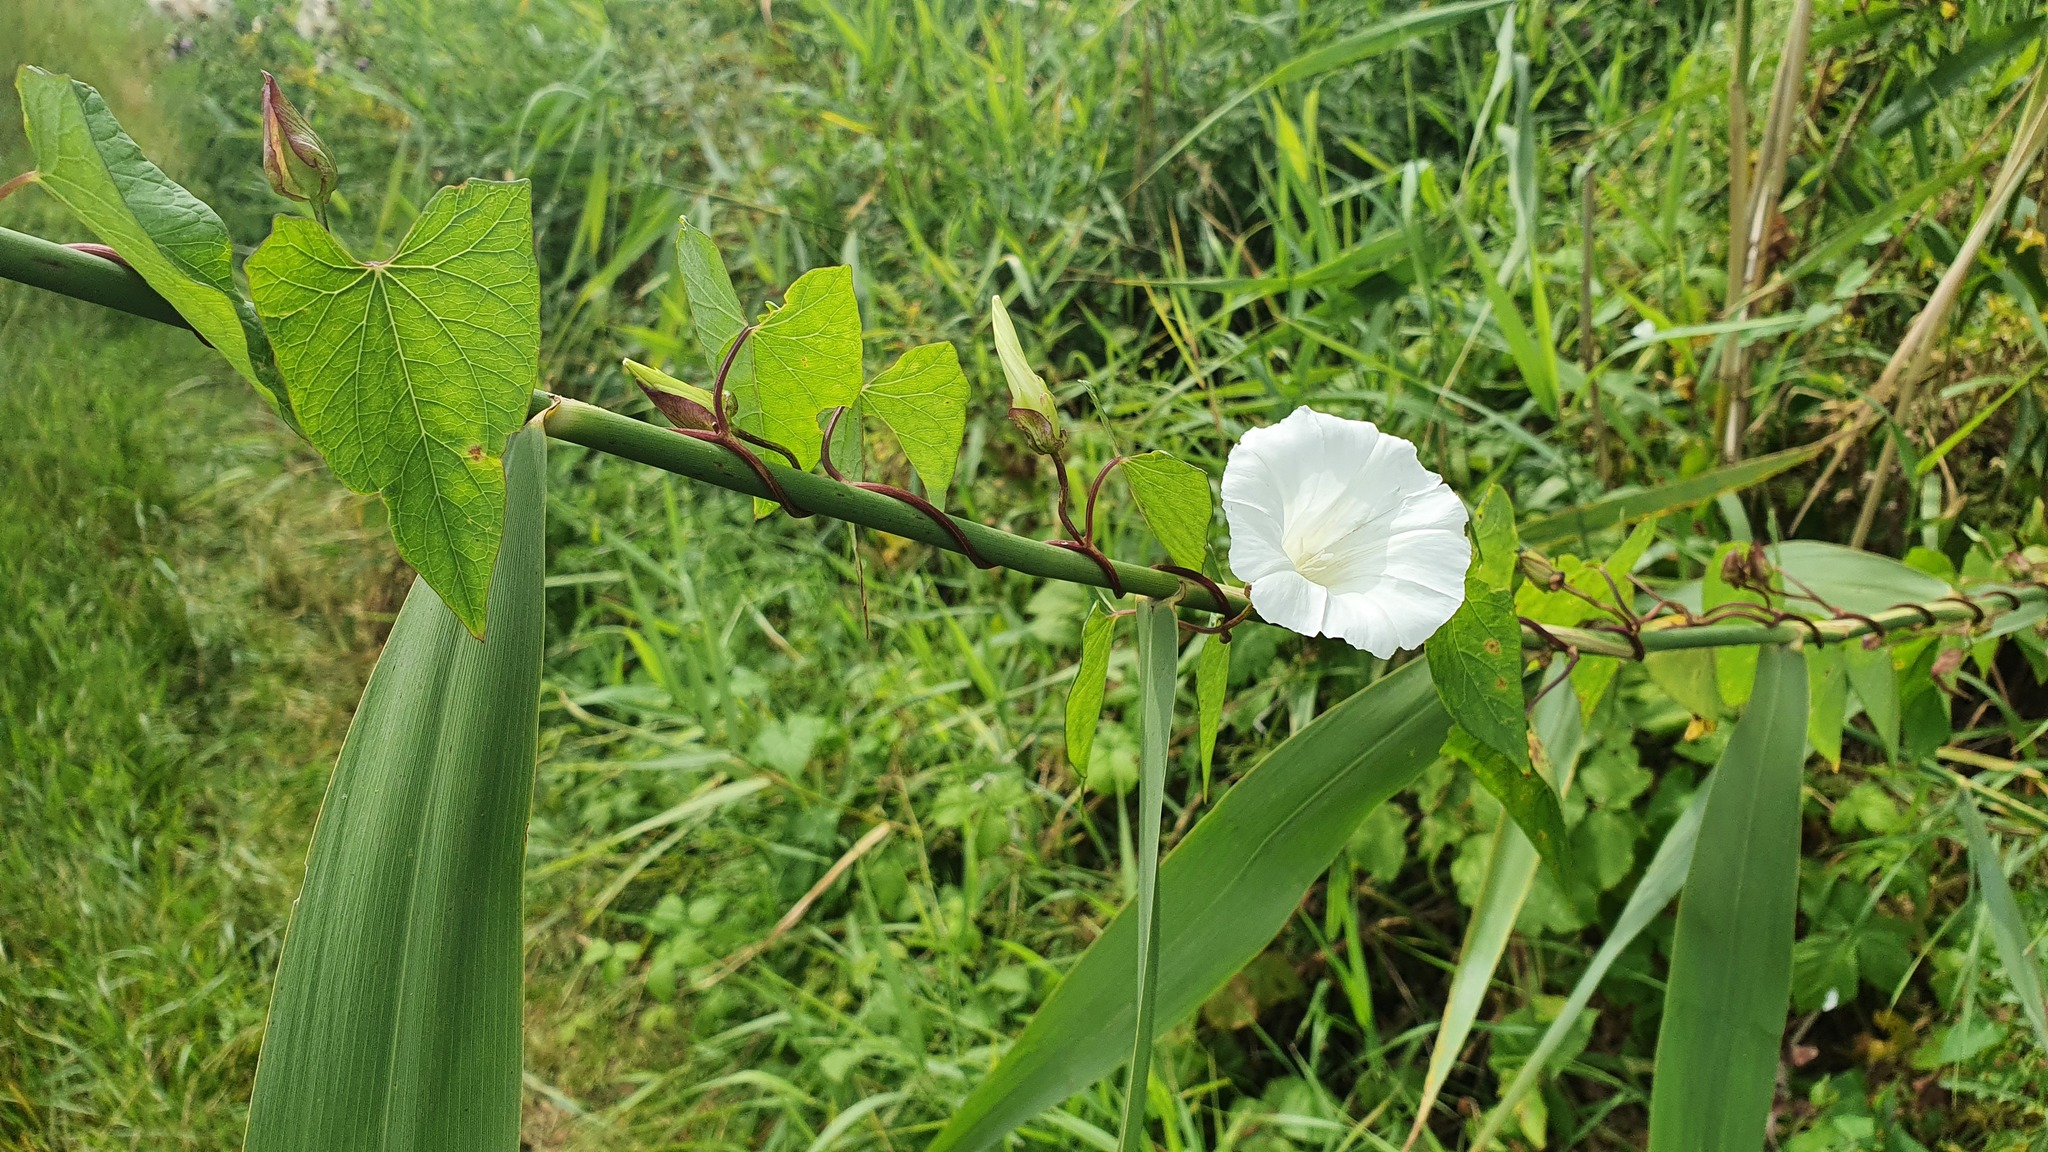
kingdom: Plantae
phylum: Tracheophyta
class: Magnoliopsida
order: Solanales
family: Convolvulaceae
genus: Calystegia
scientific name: Calystegia sepium
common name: Hedge bindweed
